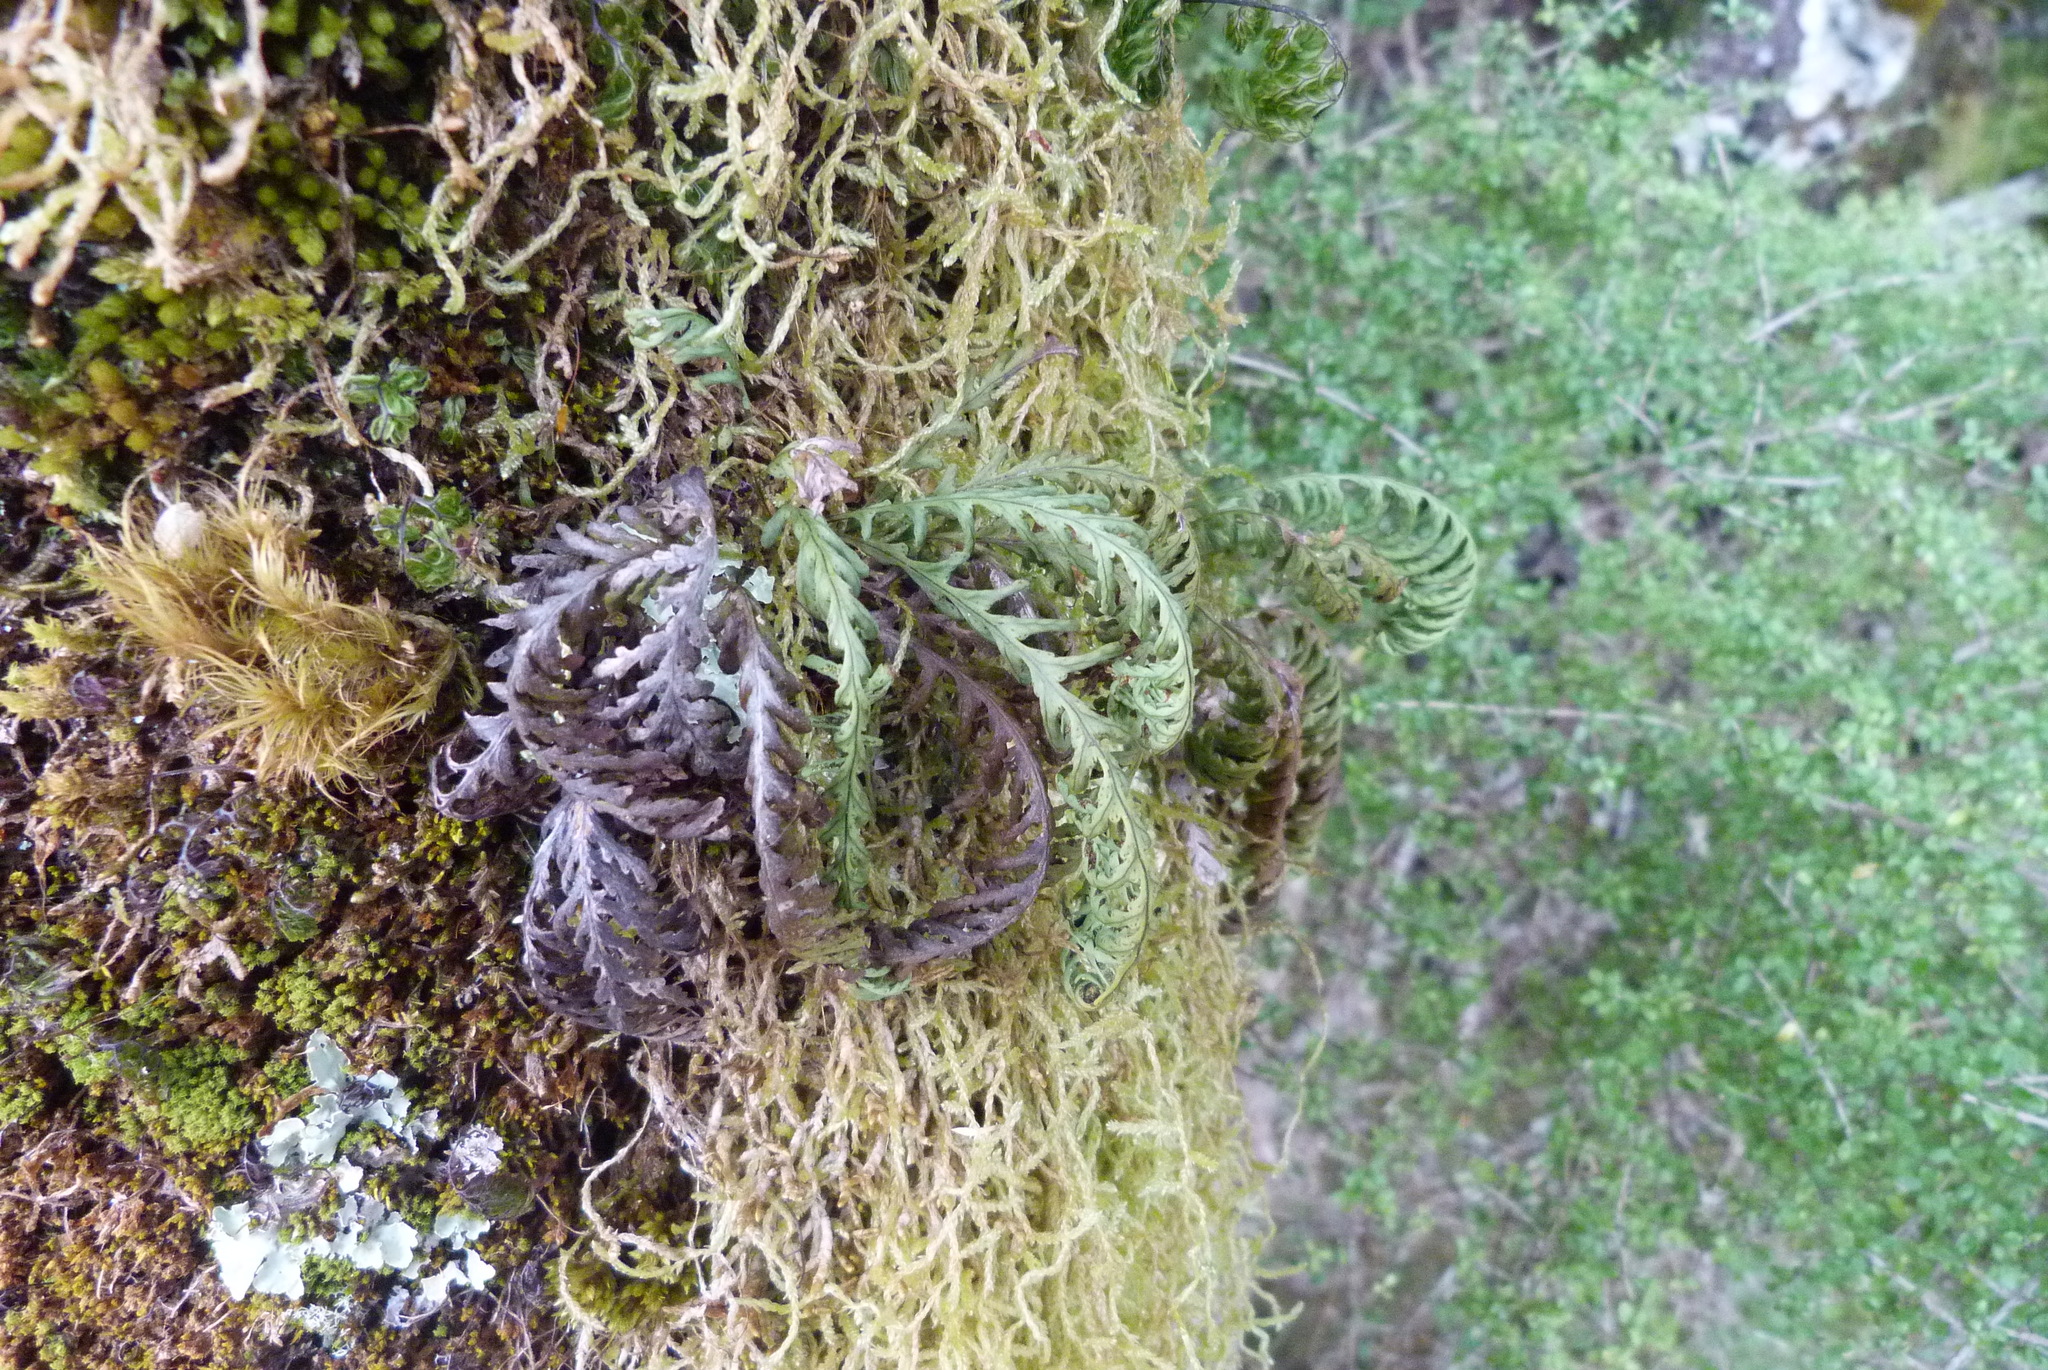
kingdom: Plantae
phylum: Tracheophyta
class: Polypodiopsida
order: Polypodiales
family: Polypodiaceae
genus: Notogrammitis
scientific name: Notogrammitis heterophylla
